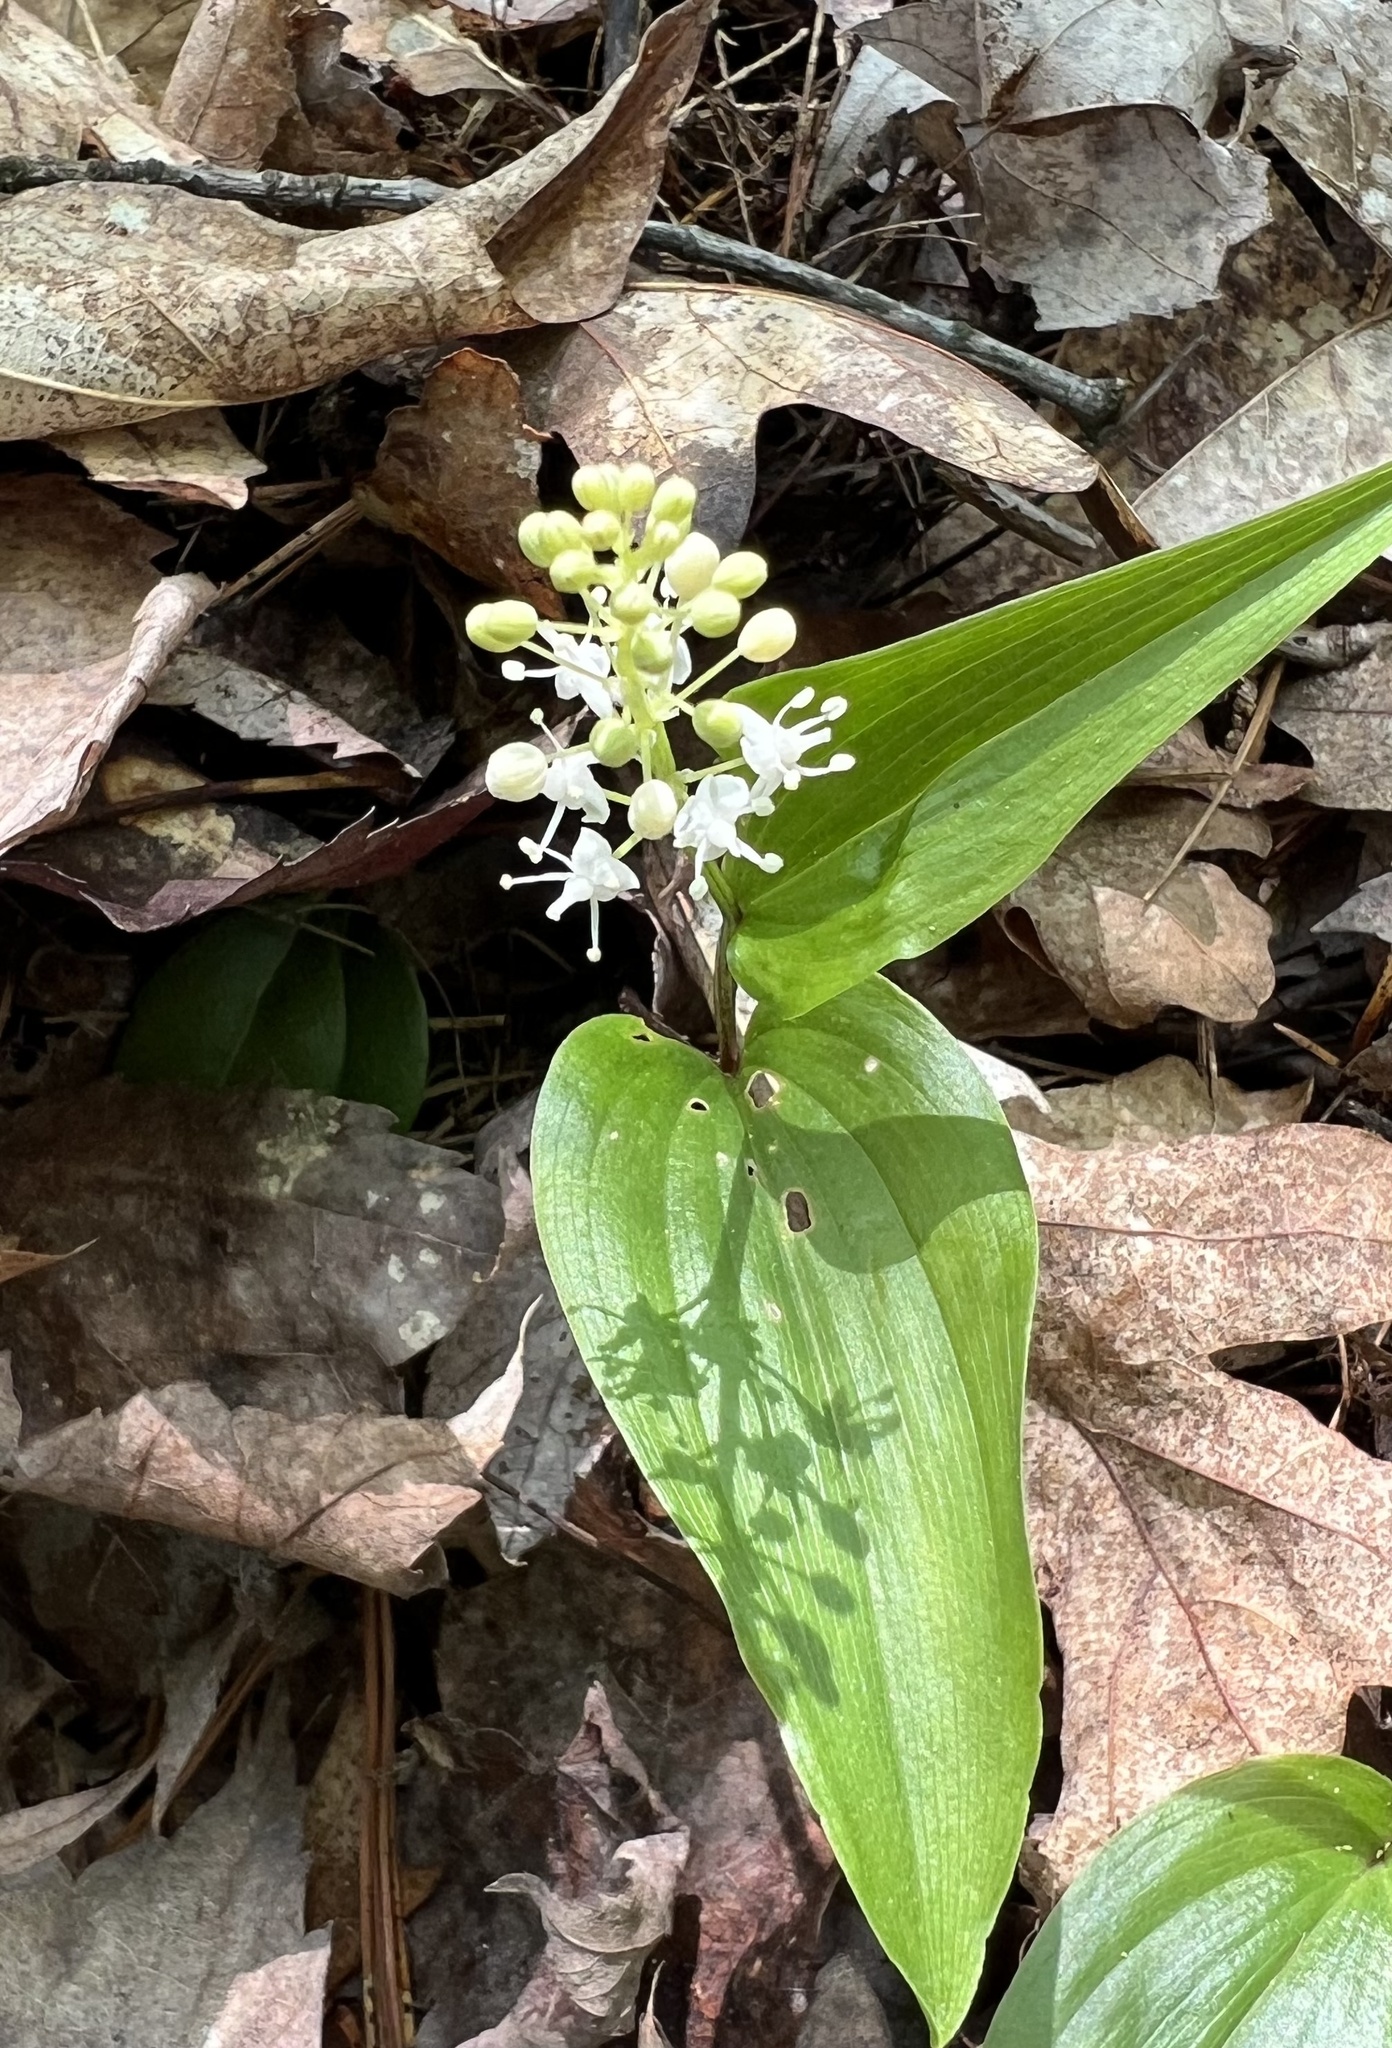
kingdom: Plantae
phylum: Tracheophyta
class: Liliopsida
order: Asparagales
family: Asparagaceae
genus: Maianthemum
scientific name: Maianthemum canadense
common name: False lily-of-the-valley
